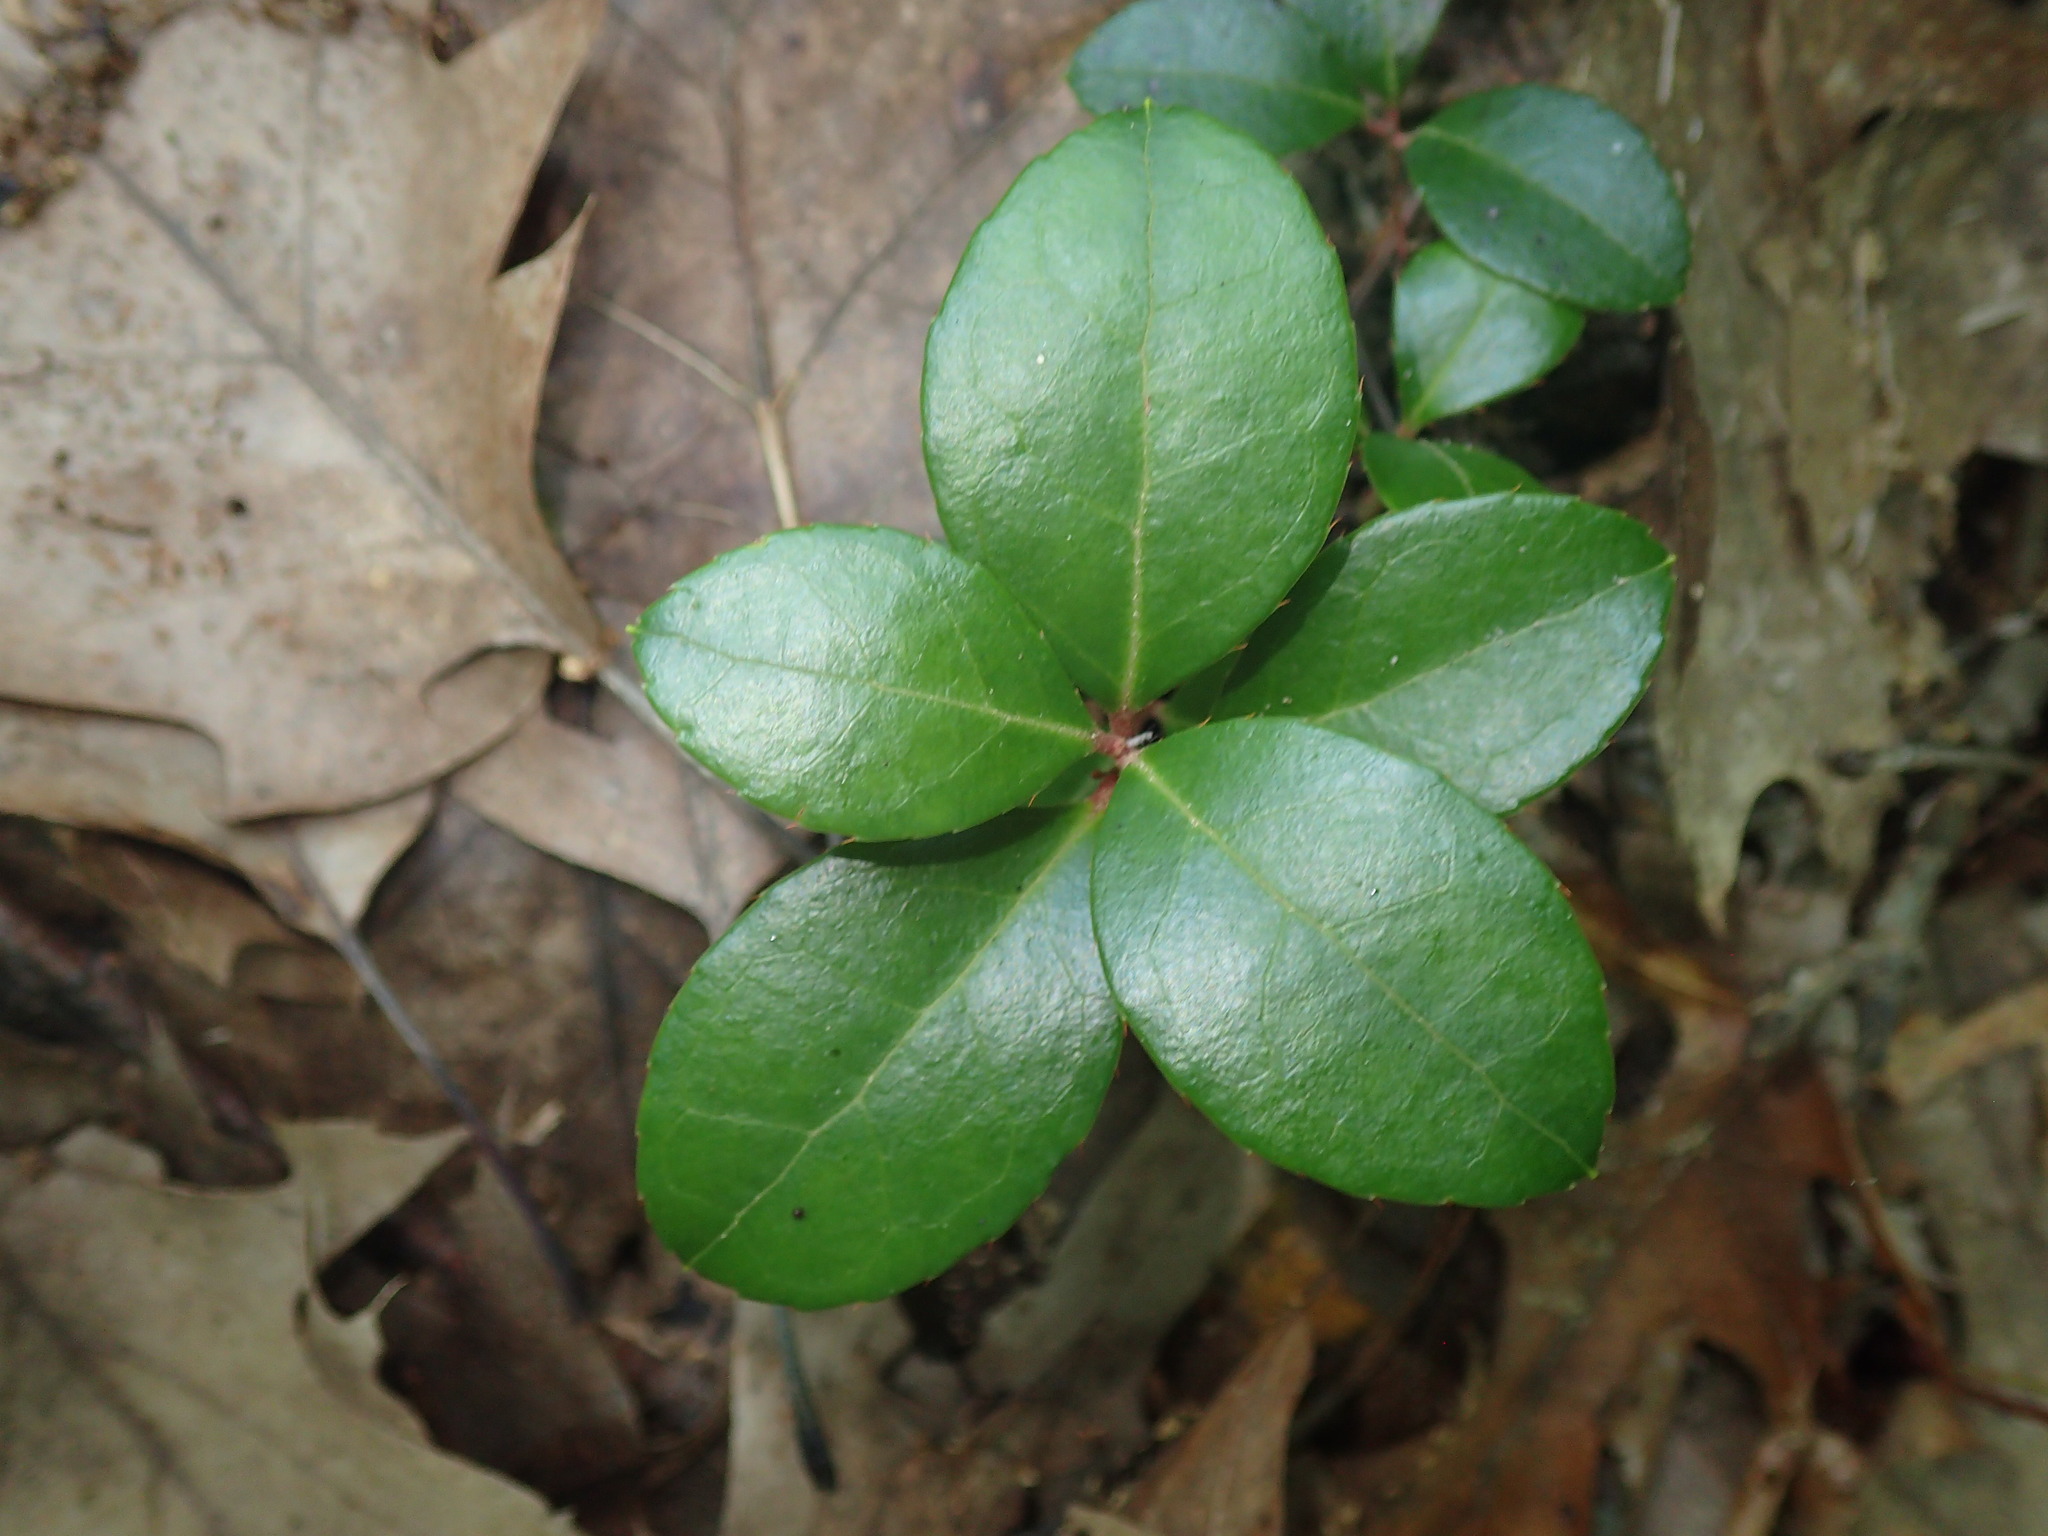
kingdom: Plantae
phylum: Tracheophyta
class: Magnoliopsida
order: Ericales
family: Ericaceae
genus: Gaultheria
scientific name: Gaultheria procumbens
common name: Checkerberry
